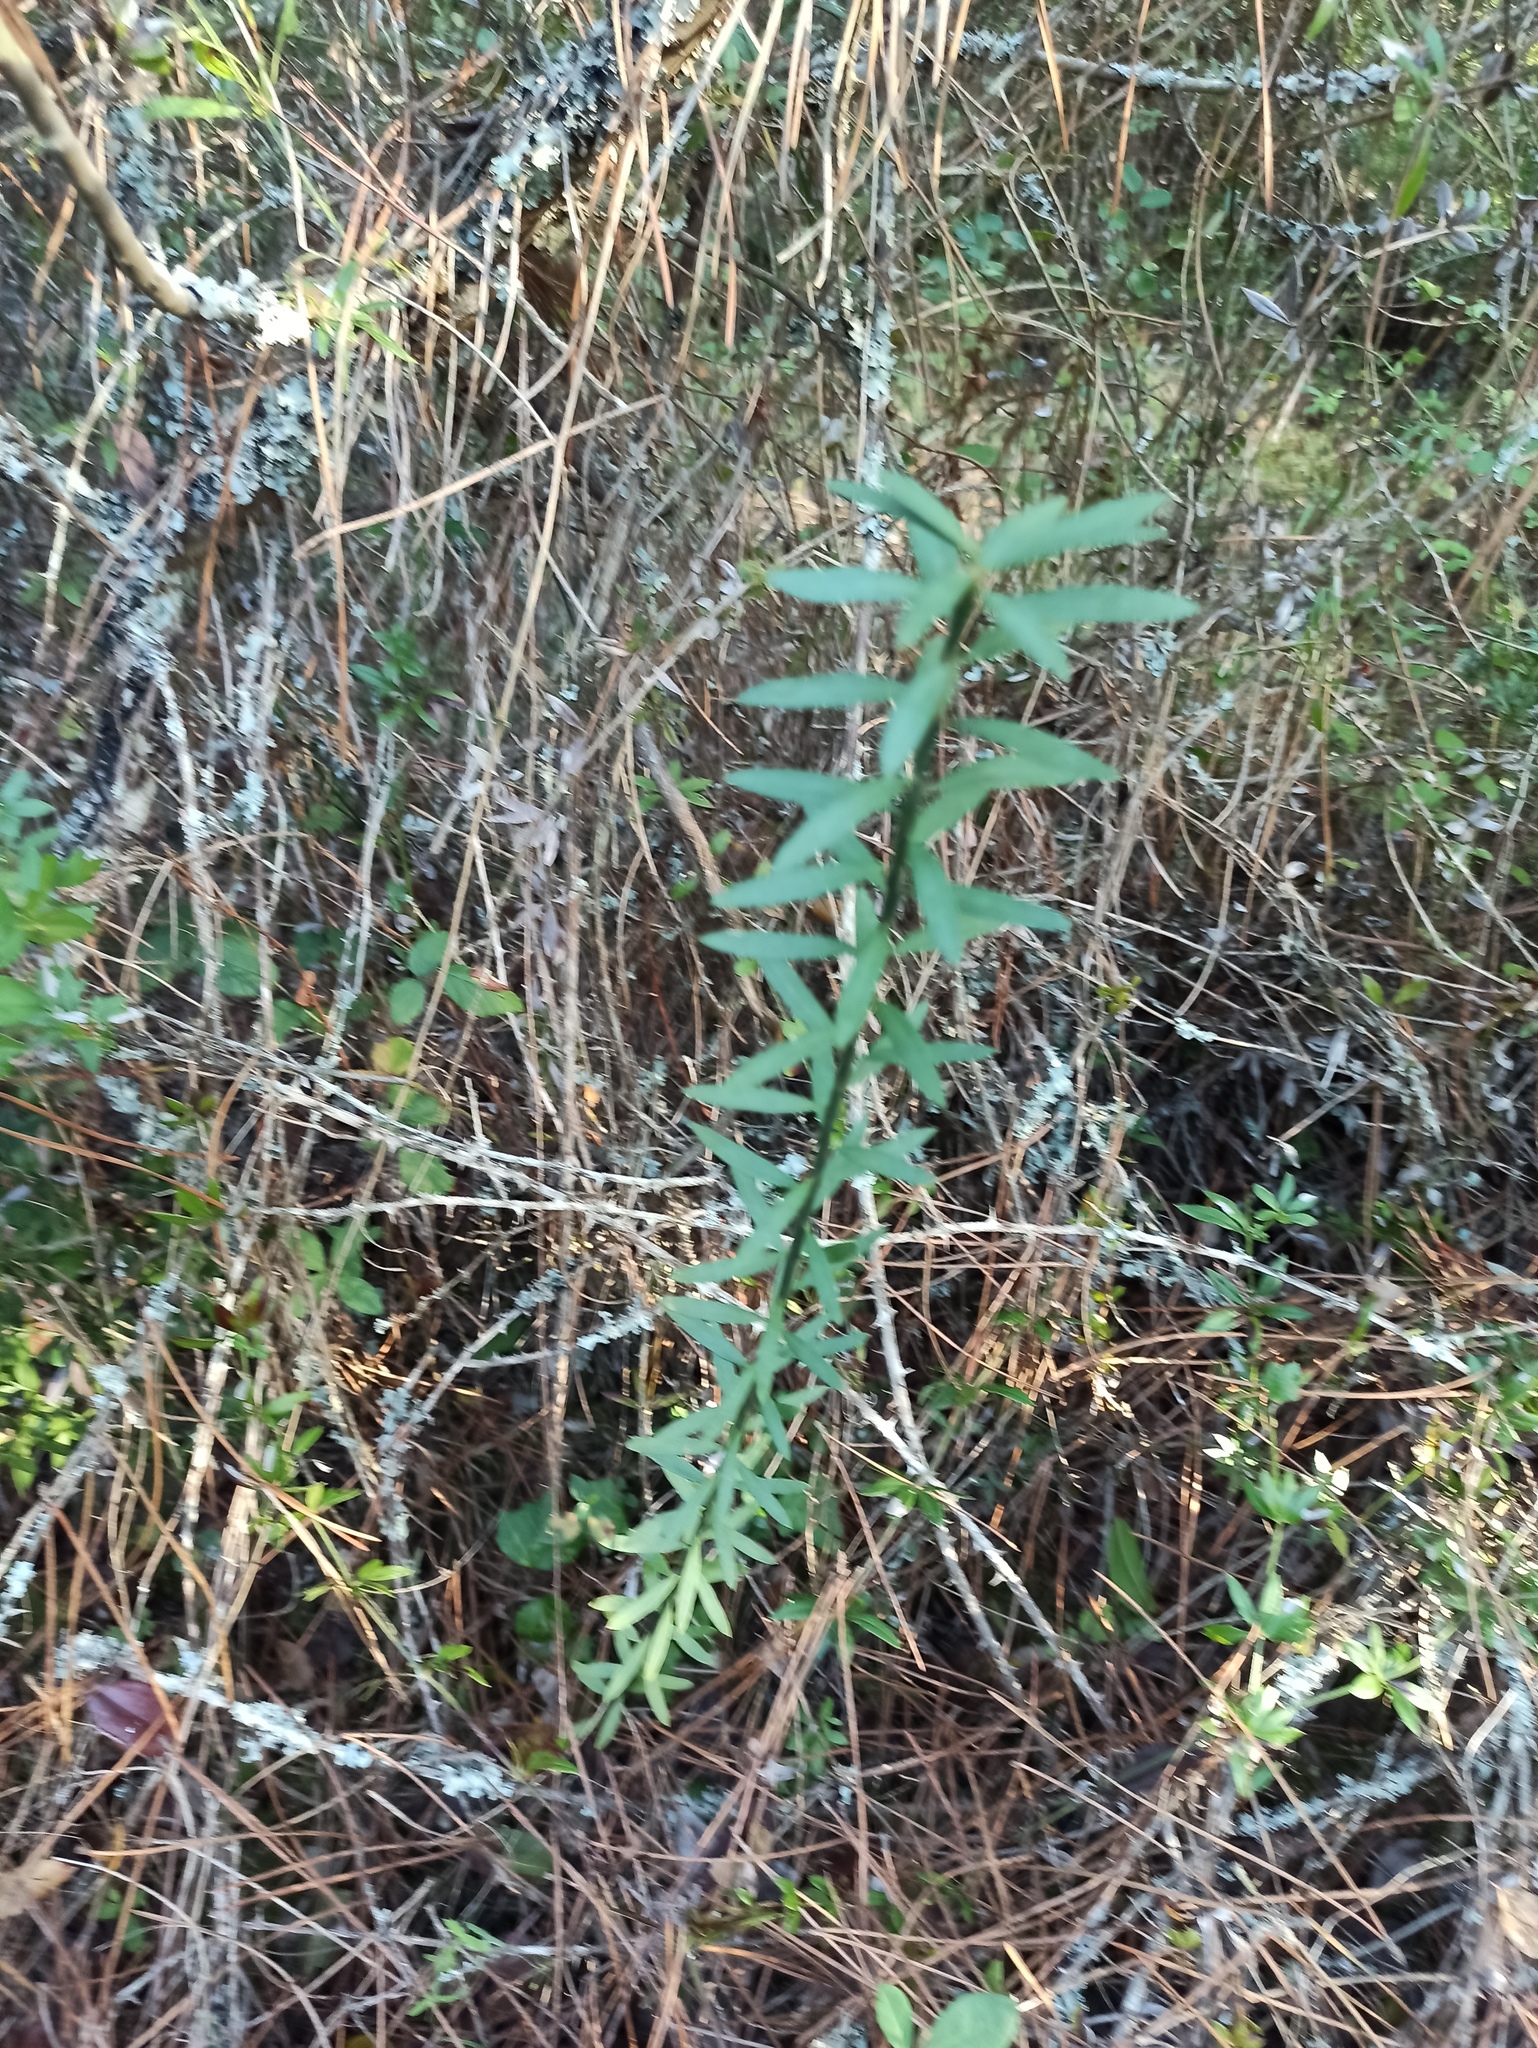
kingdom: Plantae
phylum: Tracheophyta
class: Magnoliopsida
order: Malvales
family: Thymelaeaceae
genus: Daphne
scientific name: Daphne gnidium
